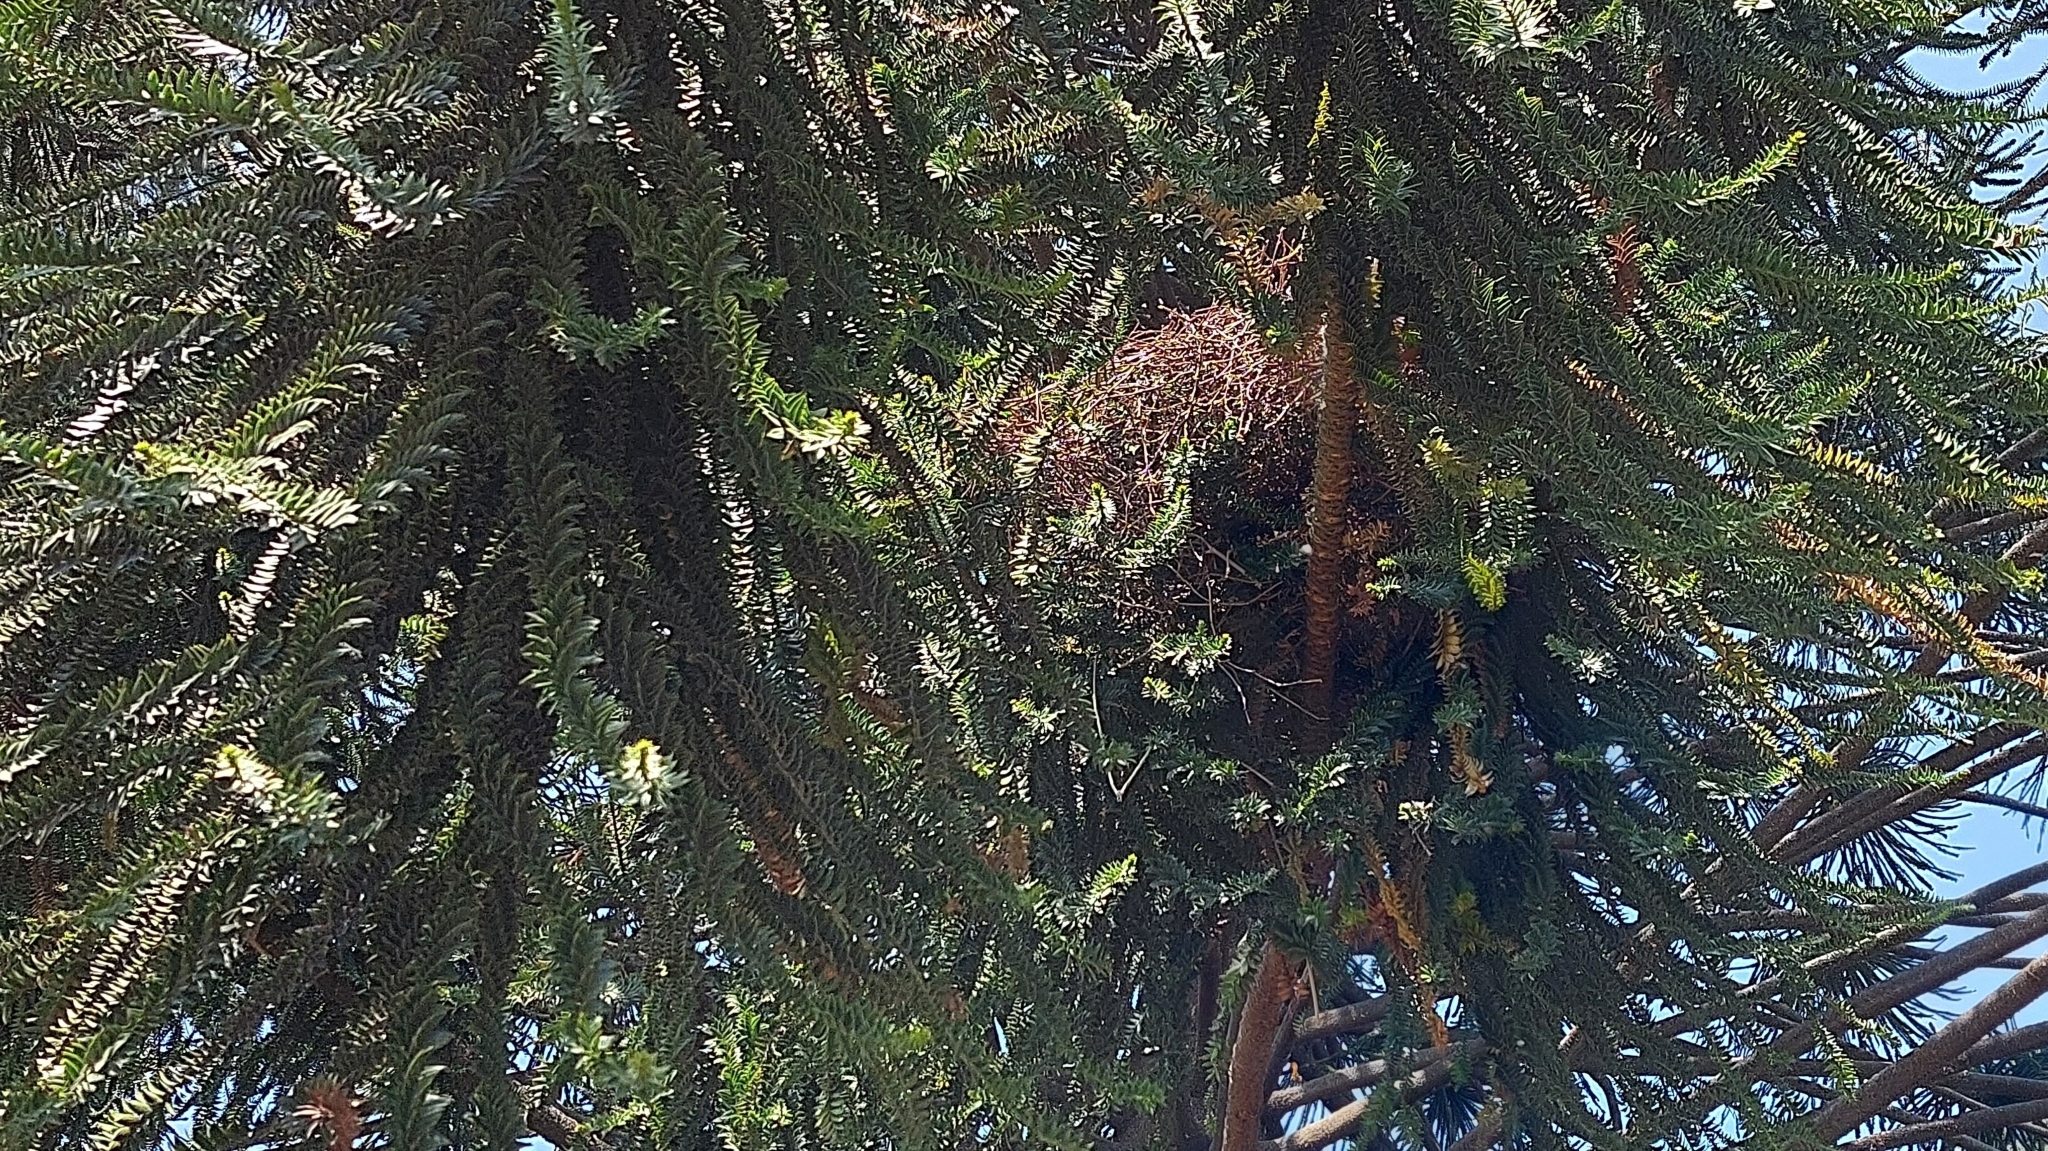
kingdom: Animalia
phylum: Chordata
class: Aves
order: Psittaciformes
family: Psittacidae
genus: Myiopsitta
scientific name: Myiopsitta monachus
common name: Monk parakeet
